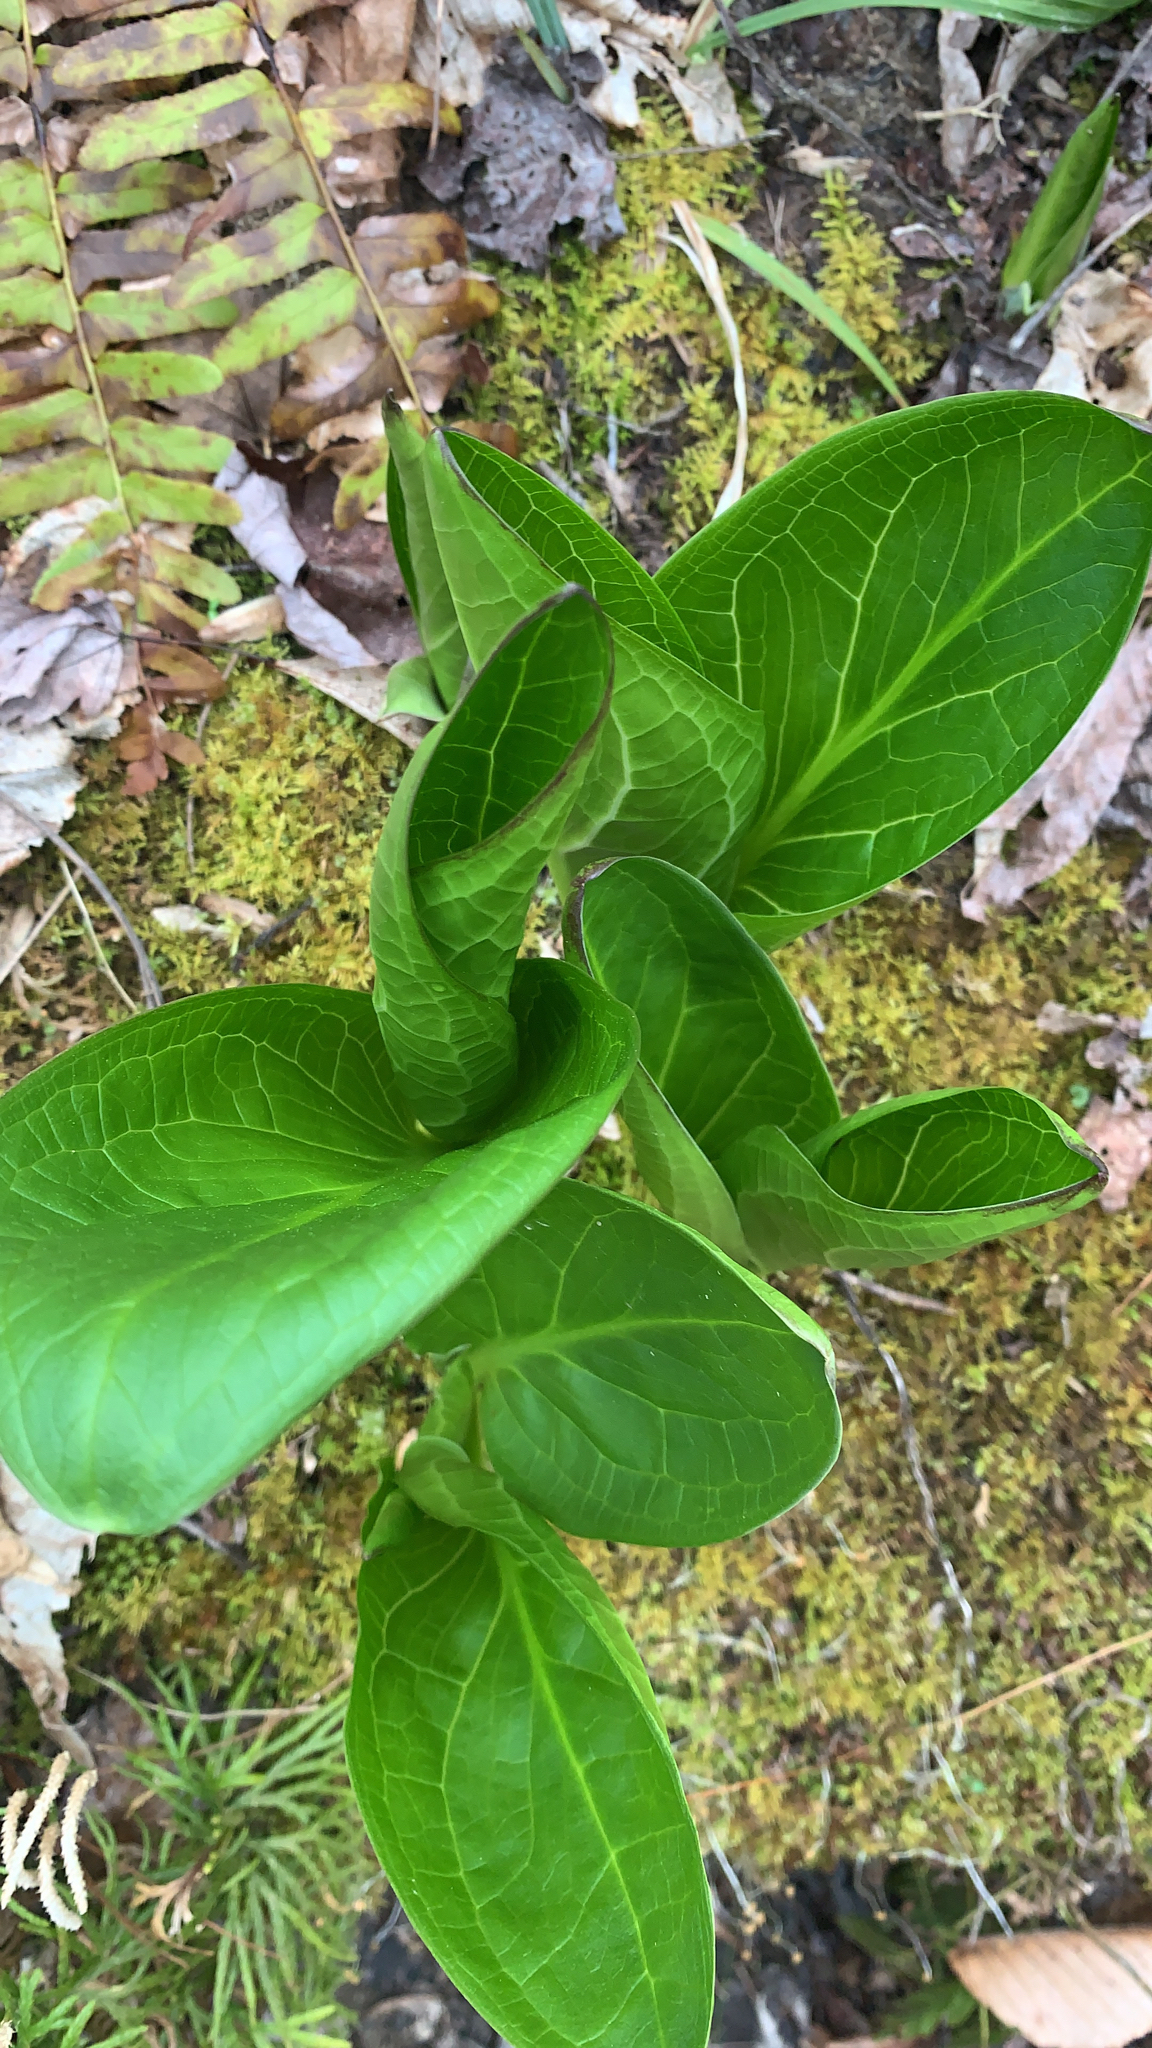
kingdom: Plantae
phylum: Tracheophyta
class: Liliopsida
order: Alismatales
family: Araceae
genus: Symplocarpus
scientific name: Symplocarpus foetidus
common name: Eastern skunk cabbage
